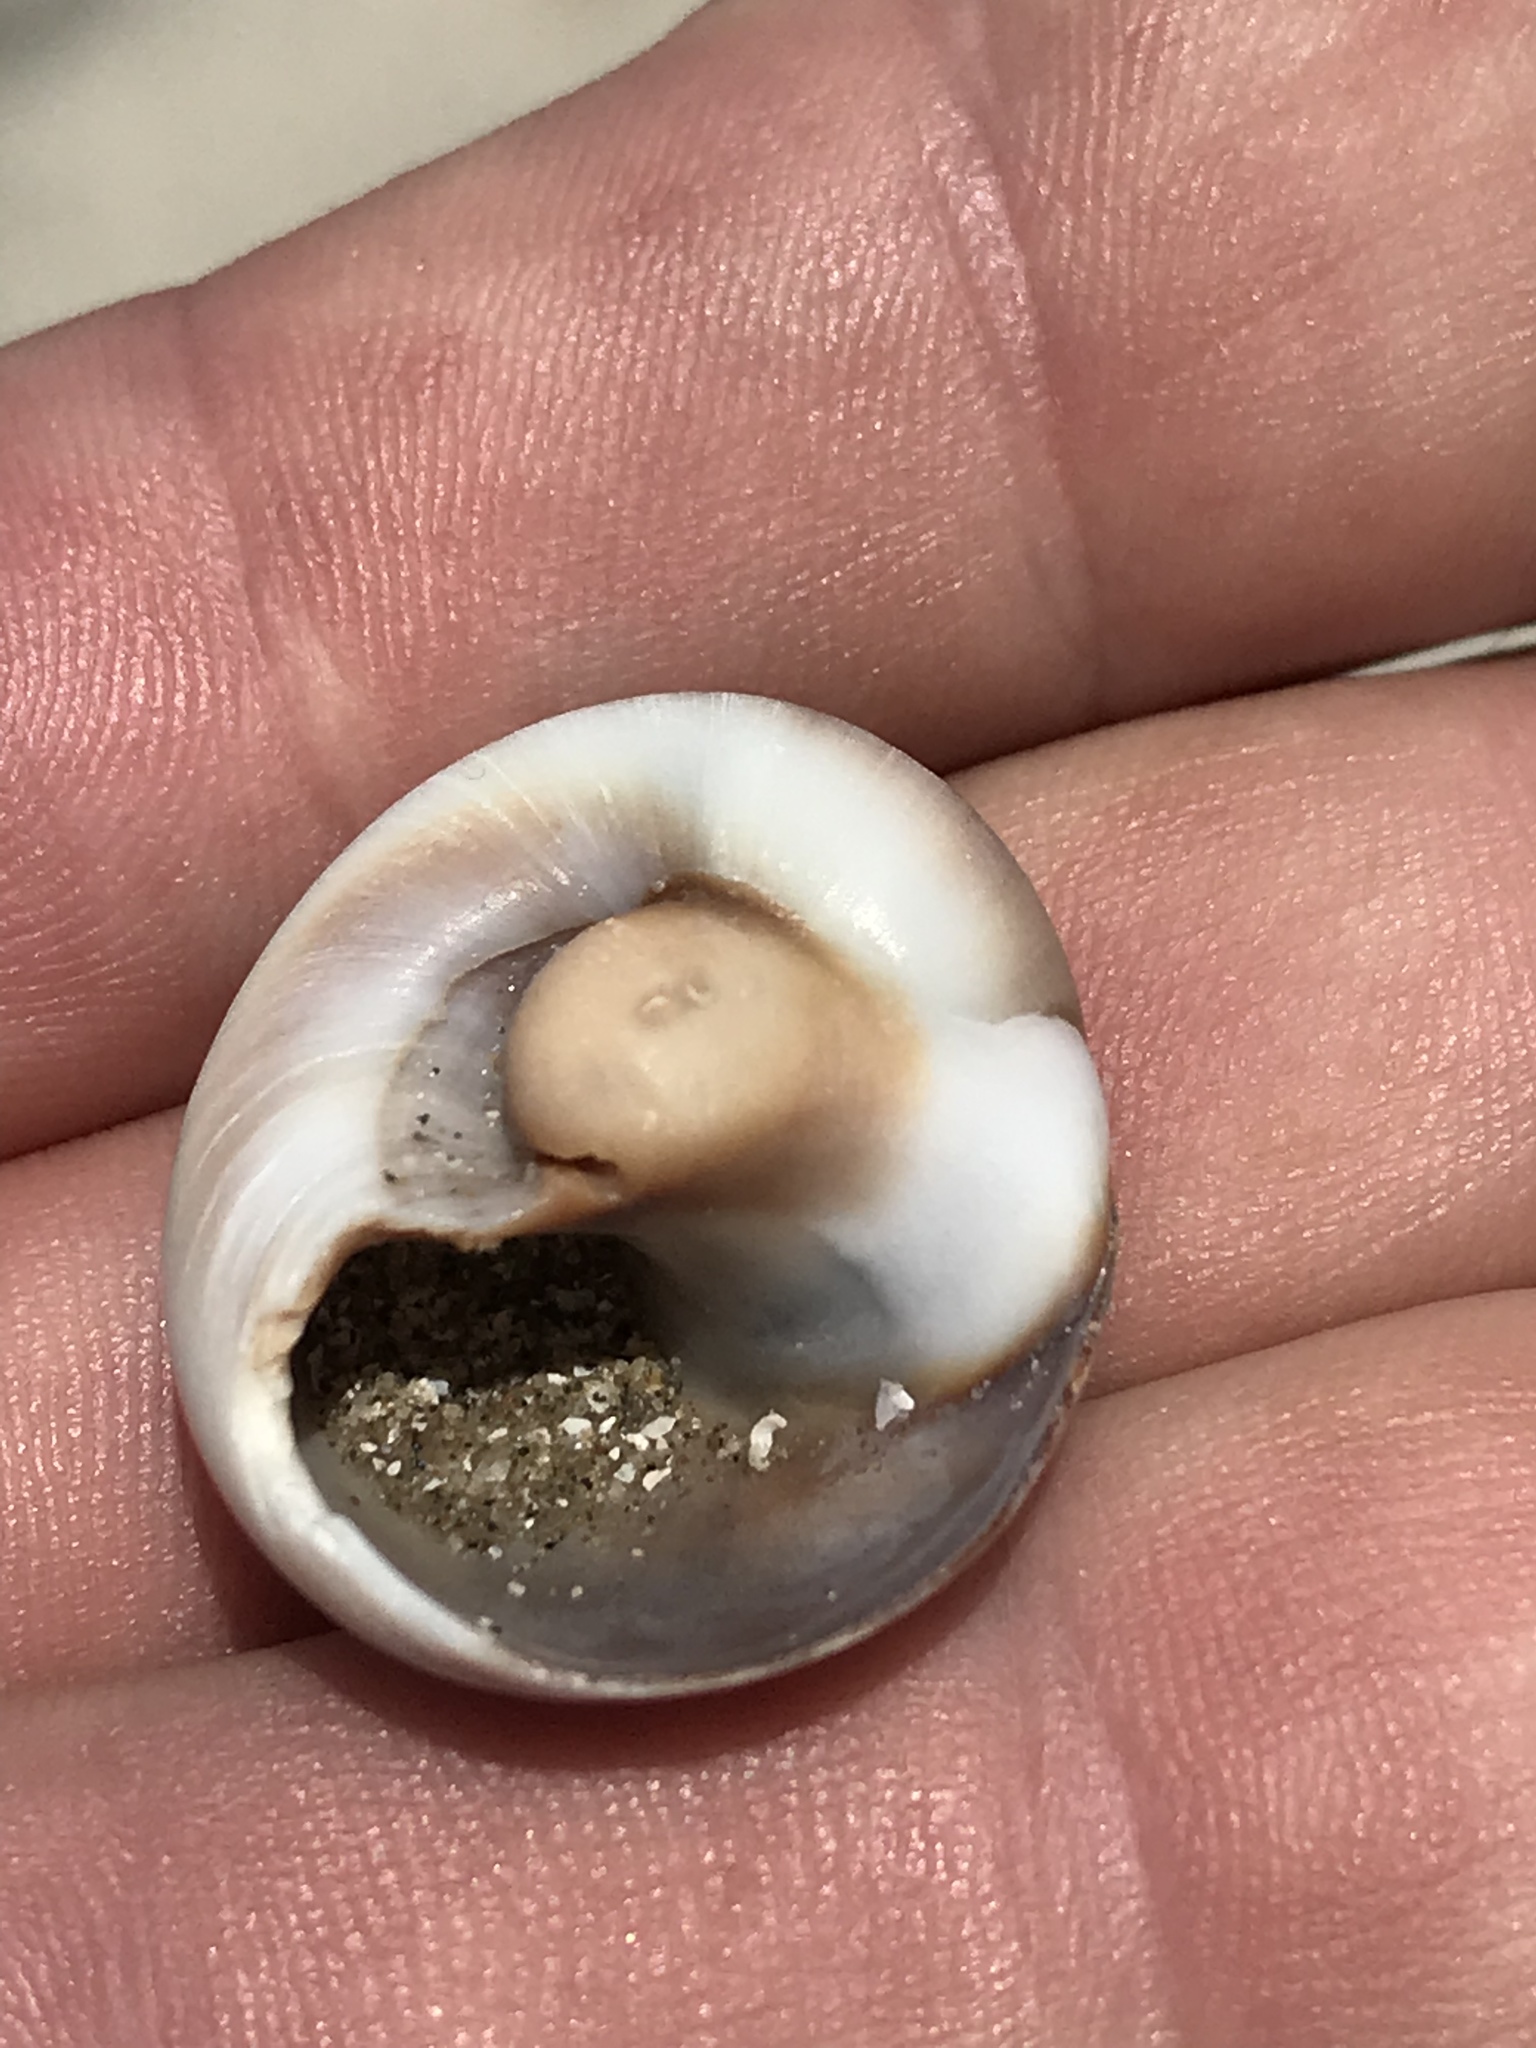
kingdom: Animalia
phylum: Mollusca
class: Gastropoda
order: Littorinimorpha
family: Naticidae
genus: Neverita
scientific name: Neverita delessertiana
